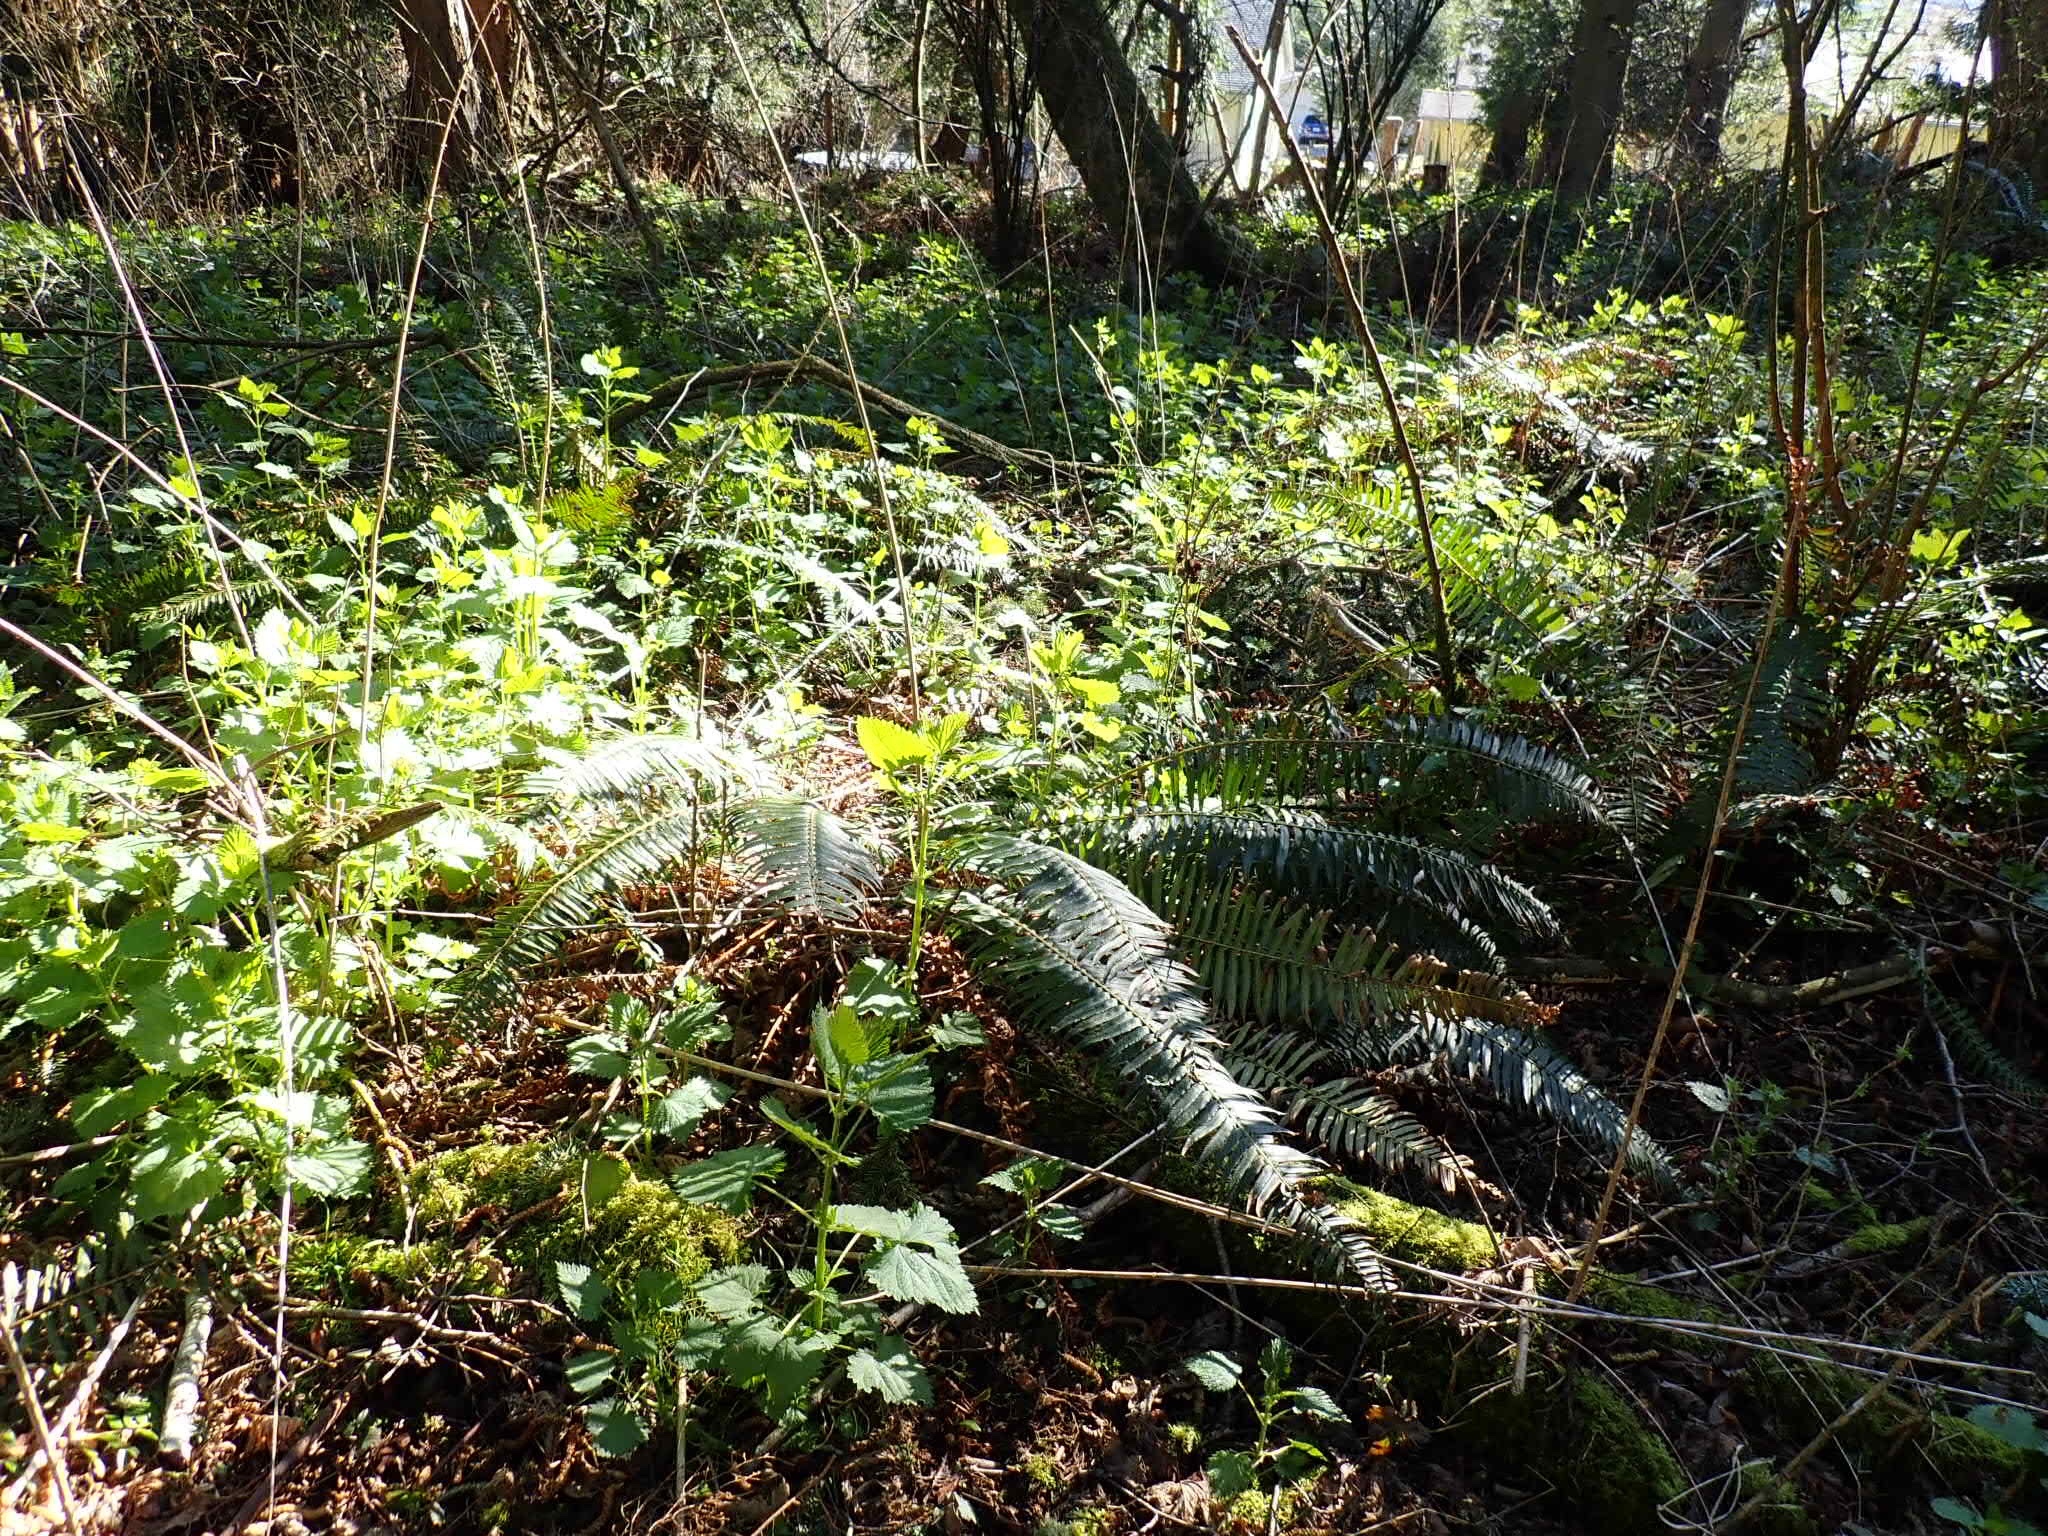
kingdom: Plantae
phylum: Tracheophyta
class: Magnoliopsida
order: Rosales
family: Urticaceae
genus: Urtica
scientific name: Urtica dioica
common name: Common nettle
